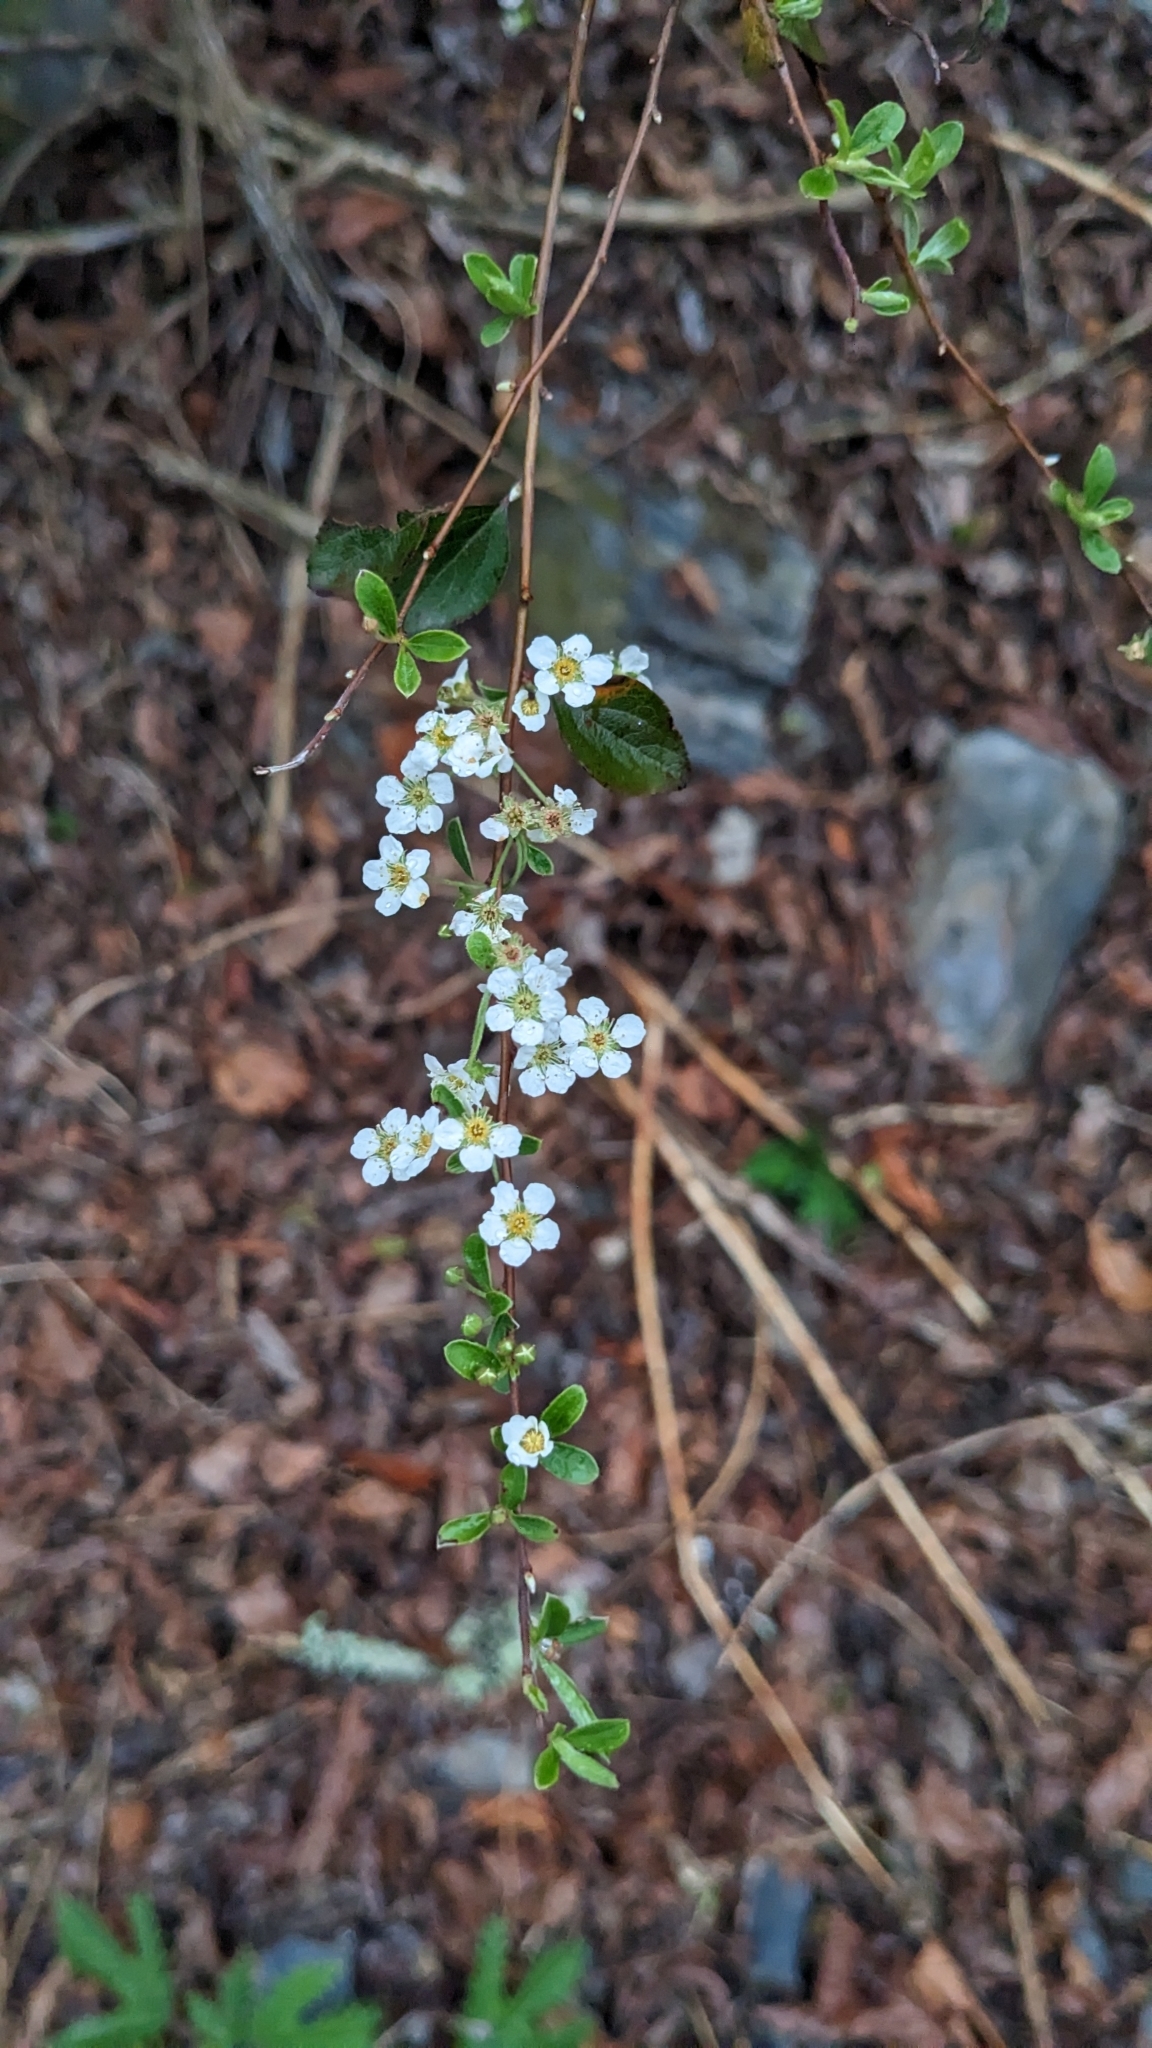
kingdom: Plantae
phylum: Tracheophyta
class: Magnoliopsida
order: Rosales
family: Rosaceae
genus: Spiraea
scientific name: Spiraea prunifolia
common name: Bridal-wreath spiraea
